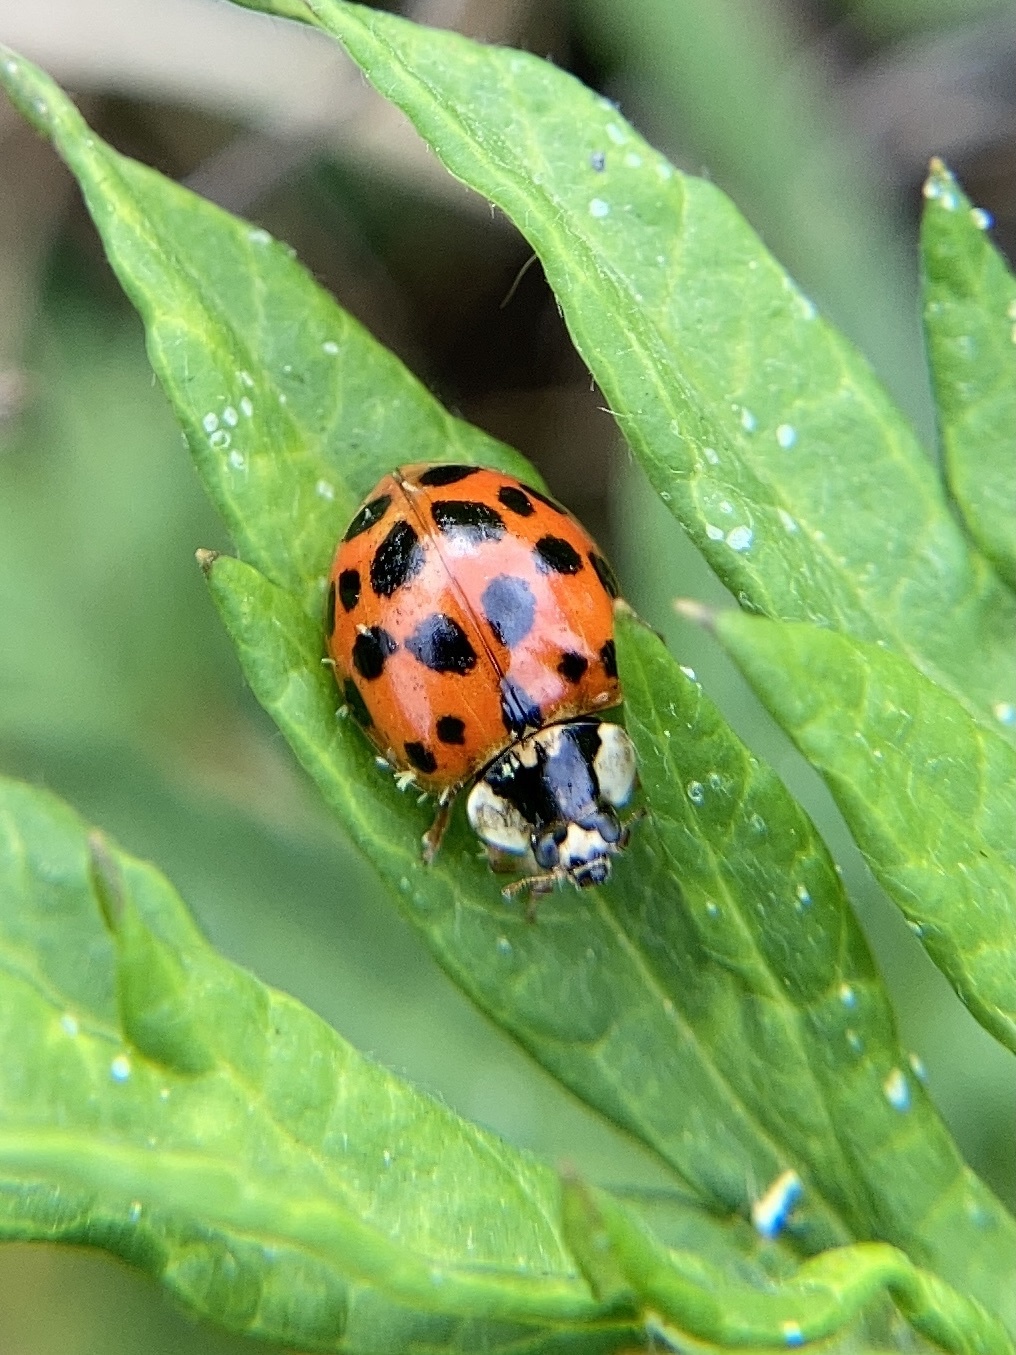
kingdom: Animalia
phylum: Arthropoda
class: Insecta
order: Coleoptera
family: Coccinellidae
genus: Harmonia
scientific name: Harmonia axyridis
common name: Harlequin ladybird
